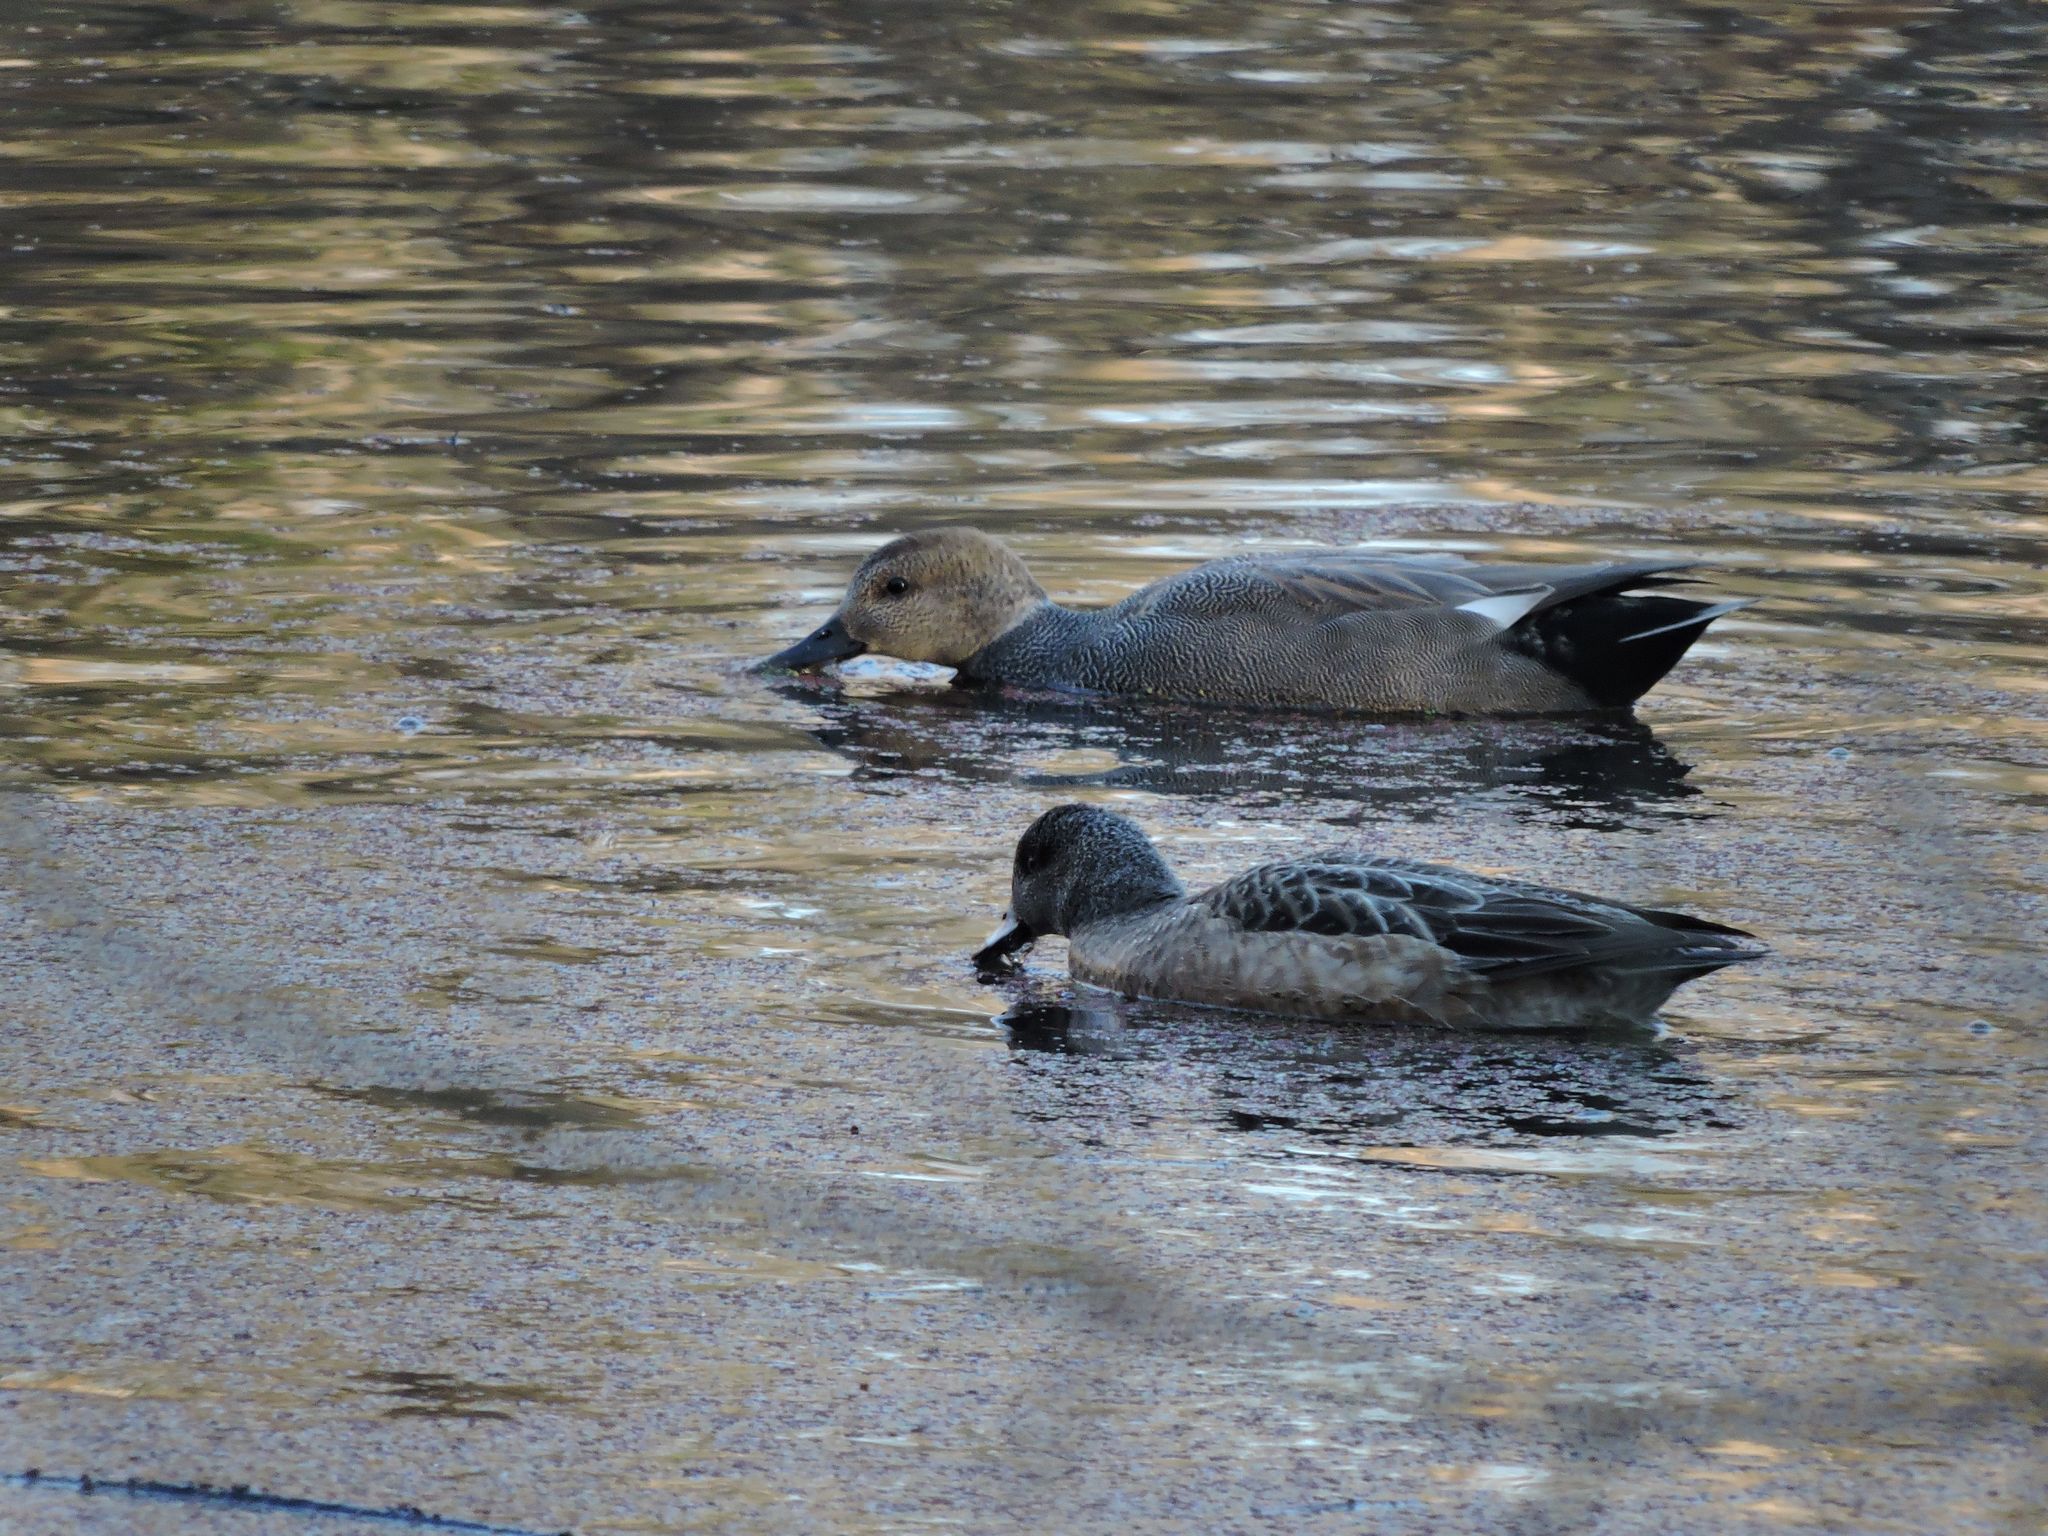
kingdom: Animalia
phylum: Chordata
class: Aves
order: Anseriformes
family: Anatidae
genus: Mareca
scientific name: Mareca americana
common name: American wigeon
